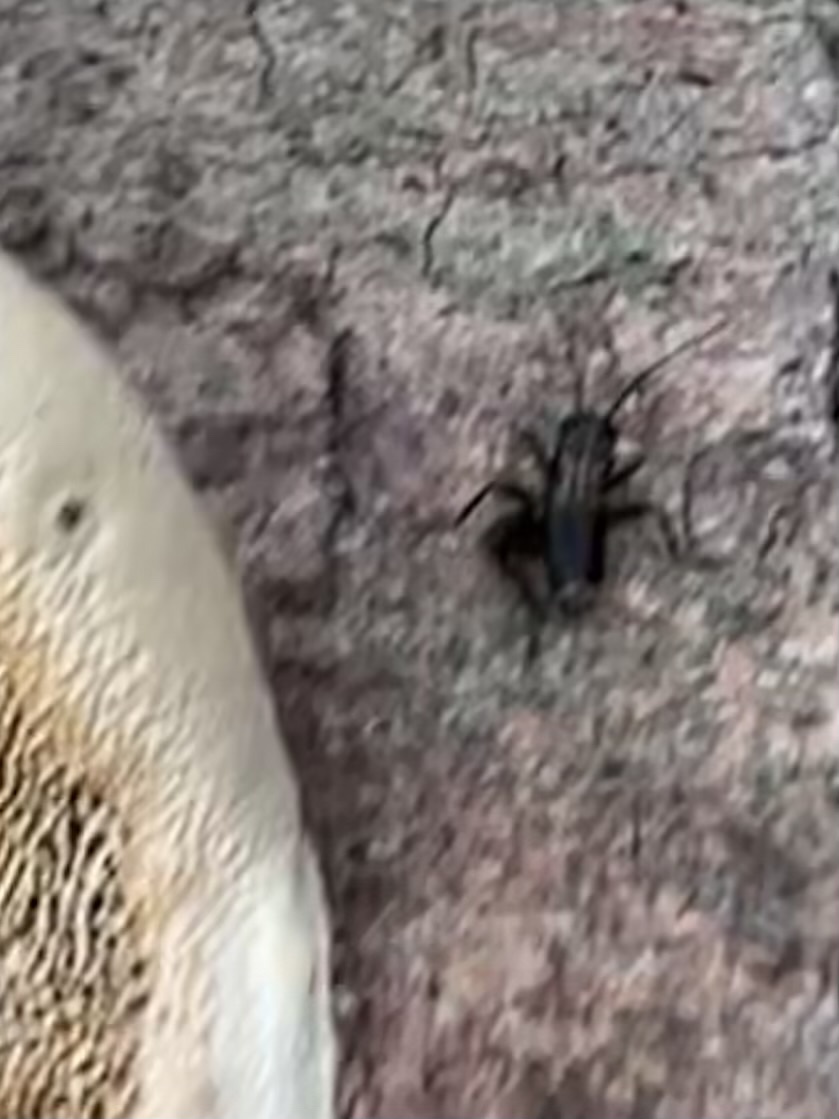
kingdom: Animalia
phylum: Arthropoda
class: Insecta
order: Orthoptera
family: Trigonidiidae
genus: Nemobius
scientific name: Nemobius sylvestris
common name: Wood-cricket
